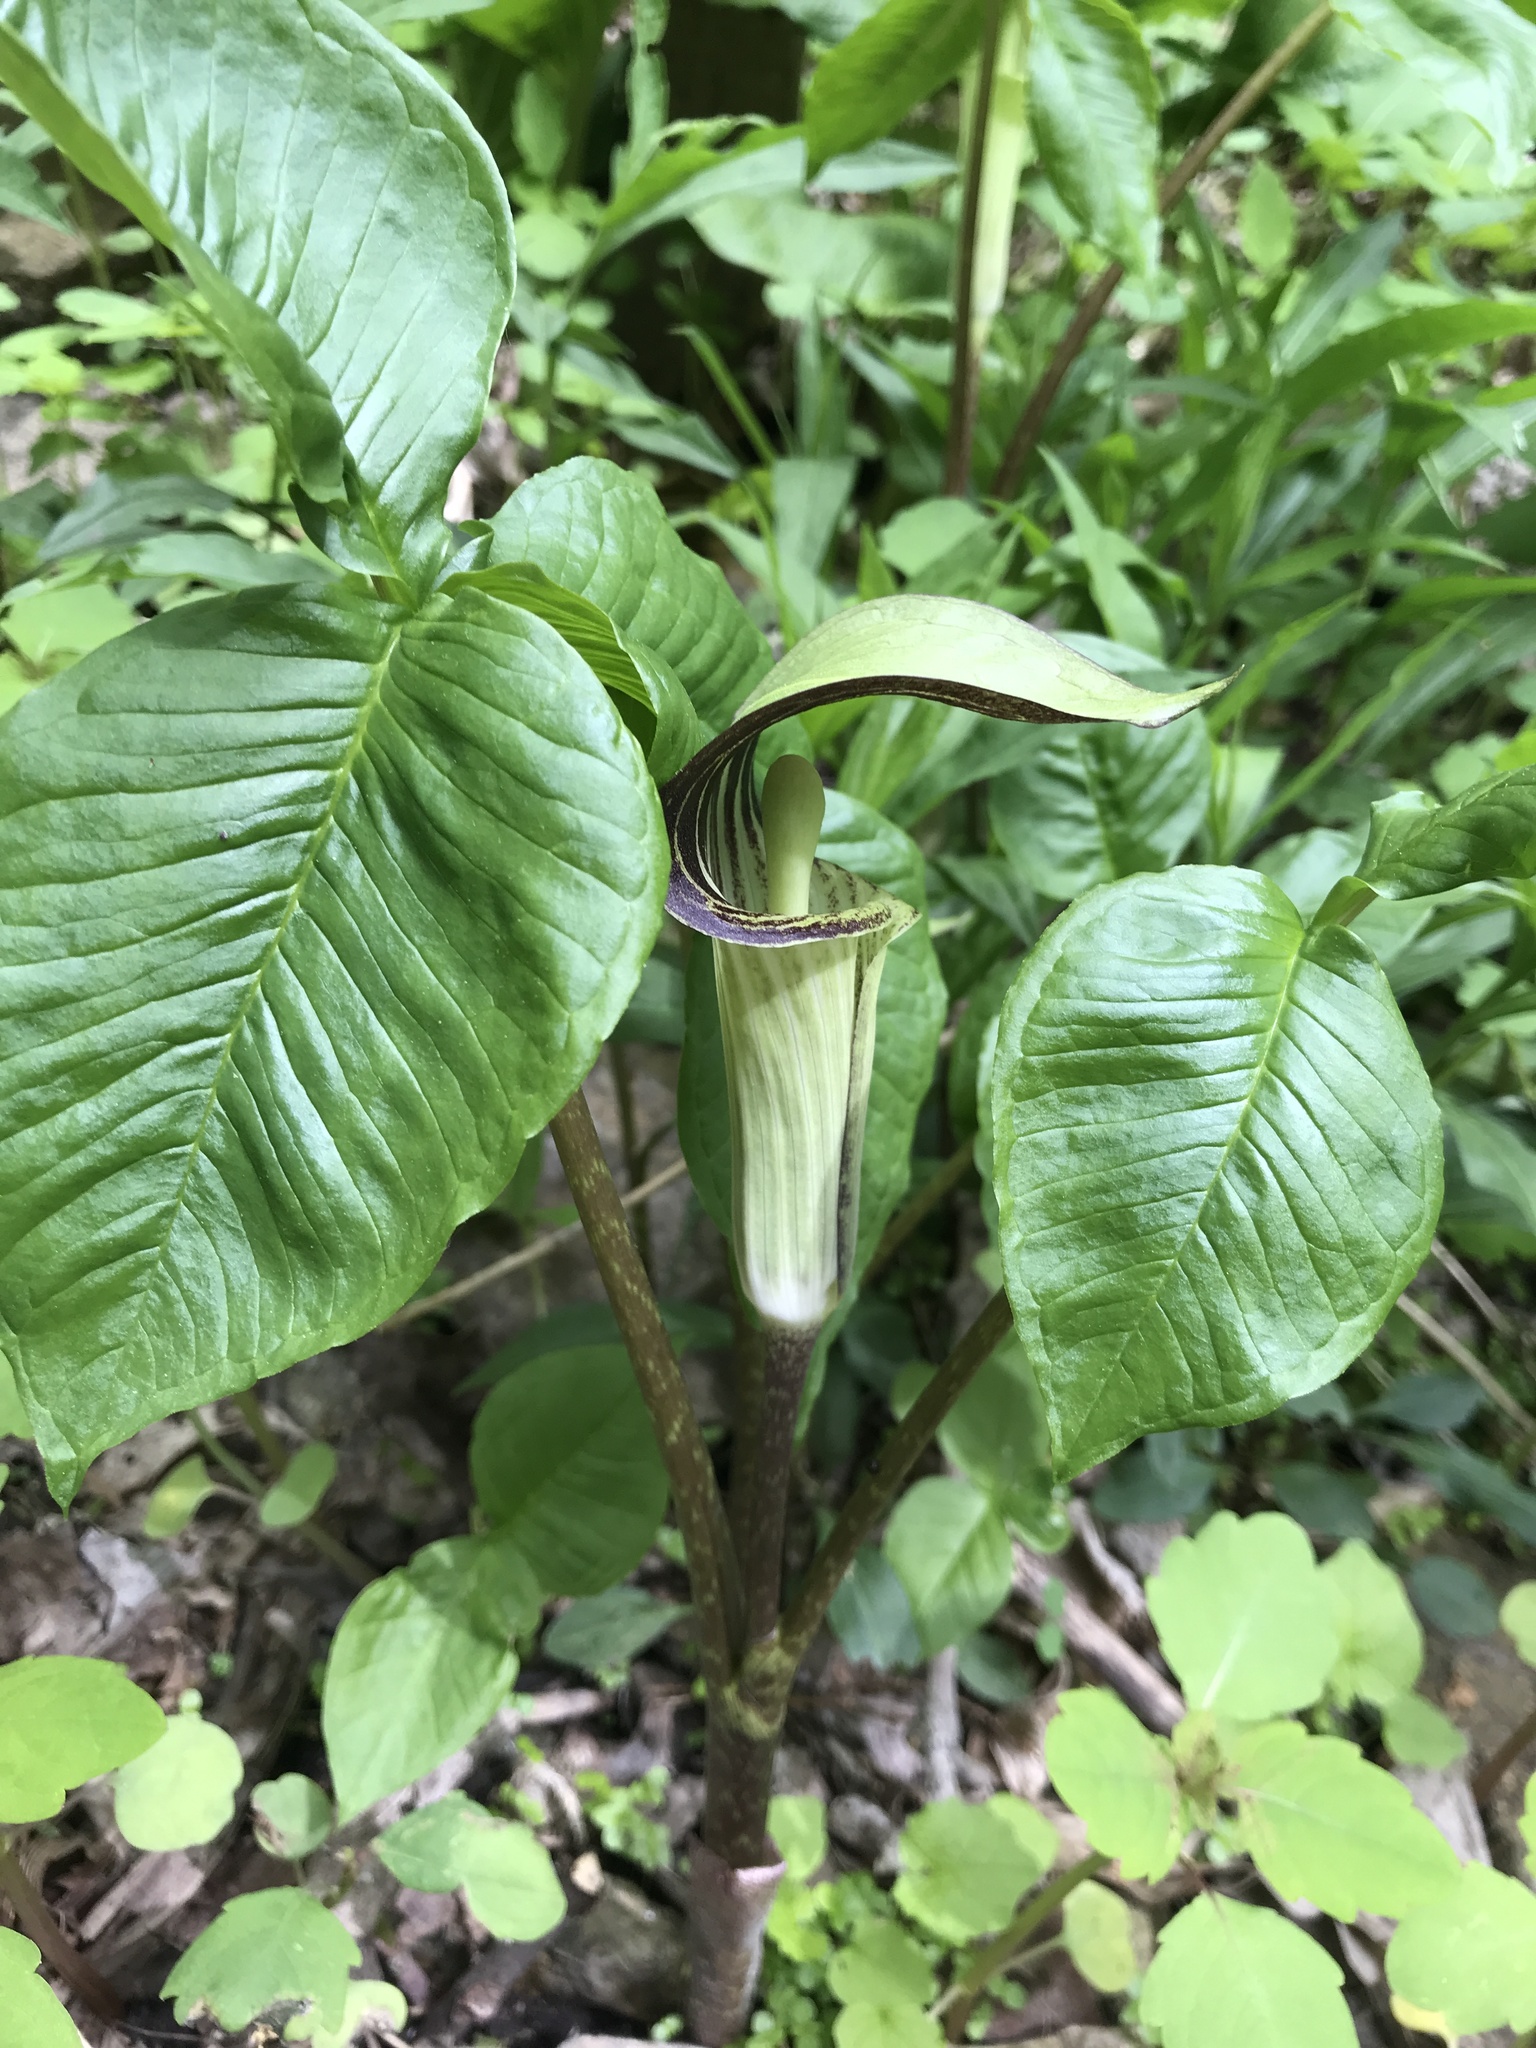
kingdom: Plantae
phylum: Tracheophyta
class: Liliopsida
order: Alismatales
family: Araceae
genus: Arisaema
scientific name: Arisaema triphyllum
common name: Jack-in-the-pulpit
